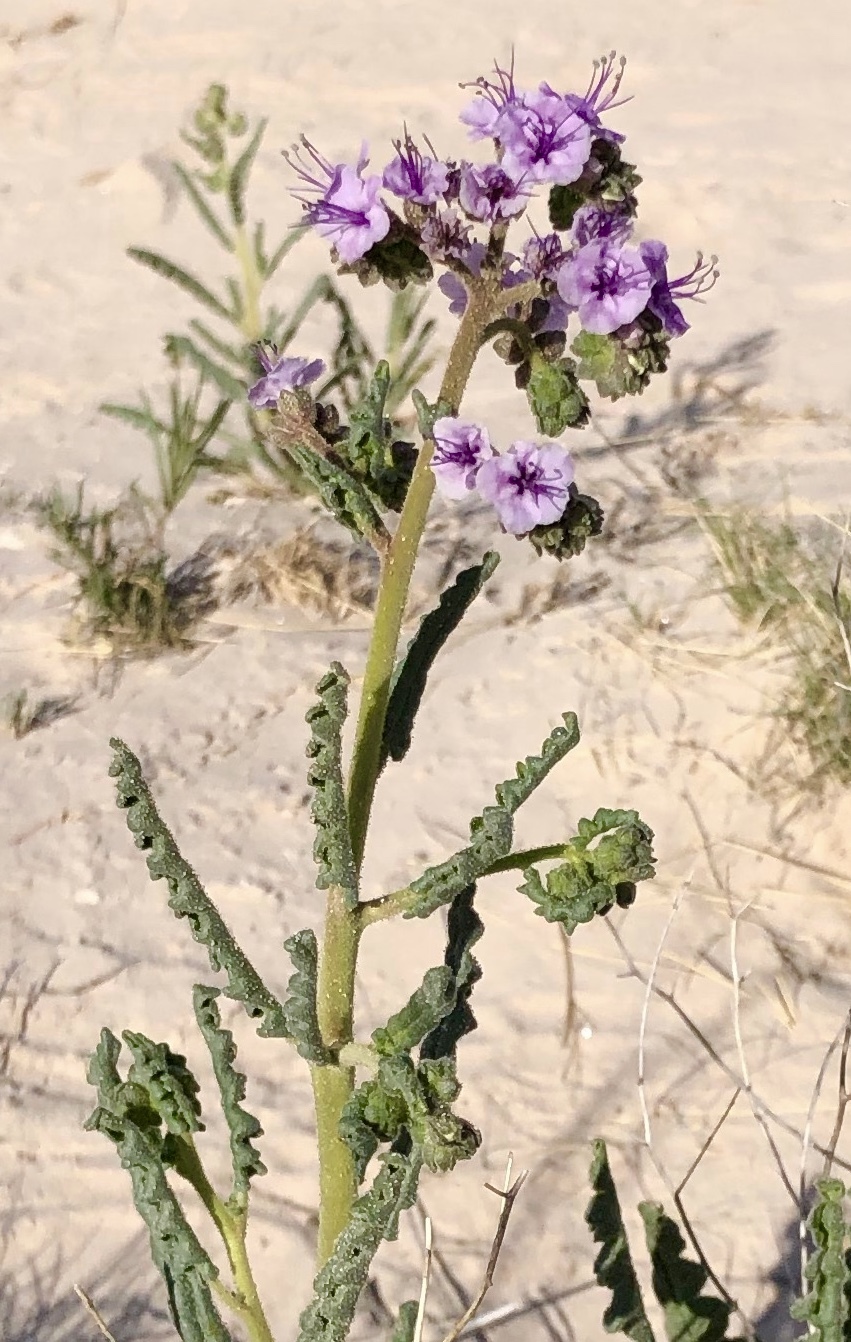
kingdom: Plantae
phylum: Tracheophyta
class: Magnoliopsida
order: Boraginales
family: Hydrophyllaceae
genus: Phacelia
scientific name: Phacelia integrifolia
